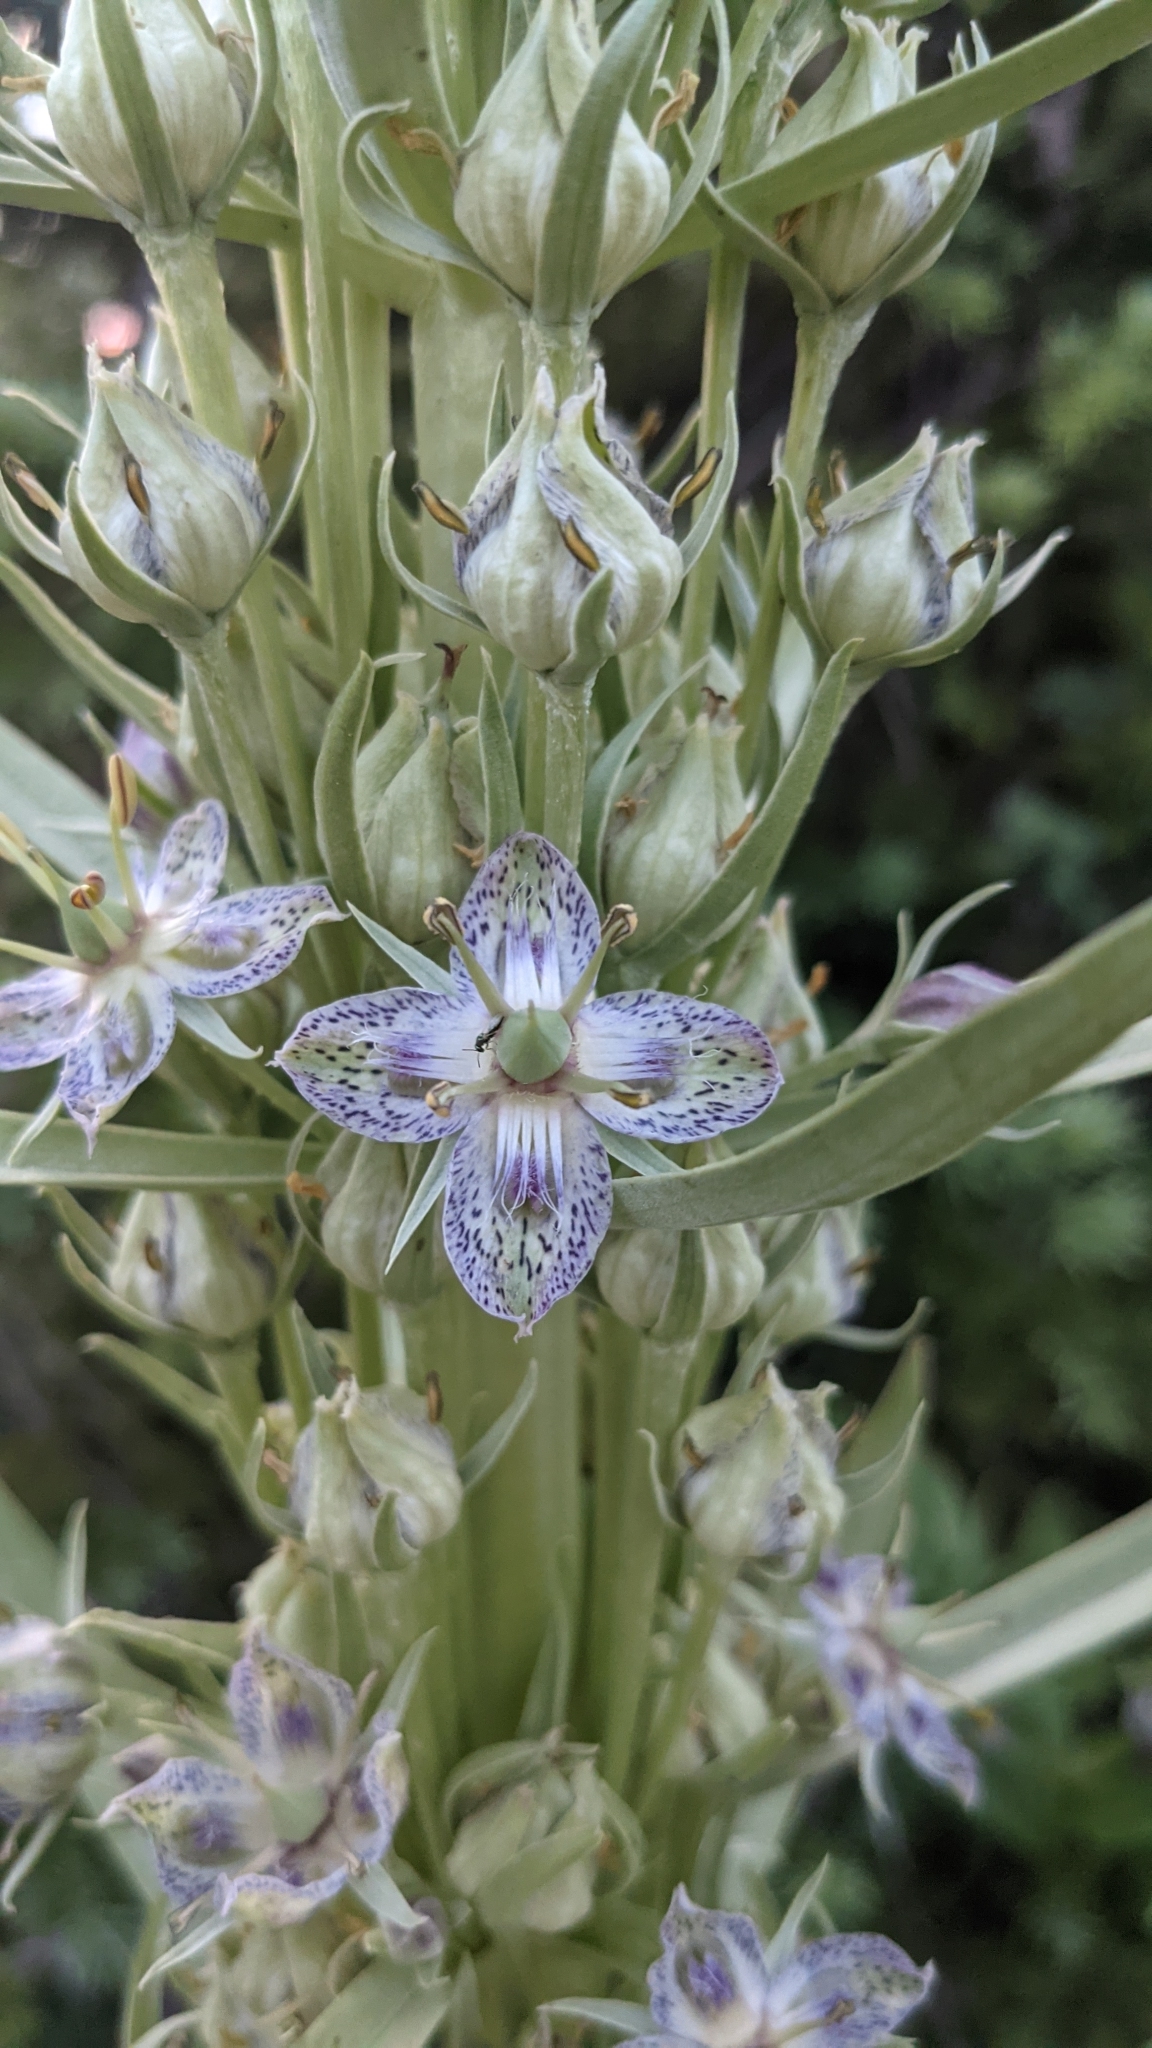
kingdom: Plantae
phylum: Tracheophyta
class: Magnoliopsida
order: Gentianales
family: Gentianaceae
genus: Frasera
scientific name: Frasera speciosa
